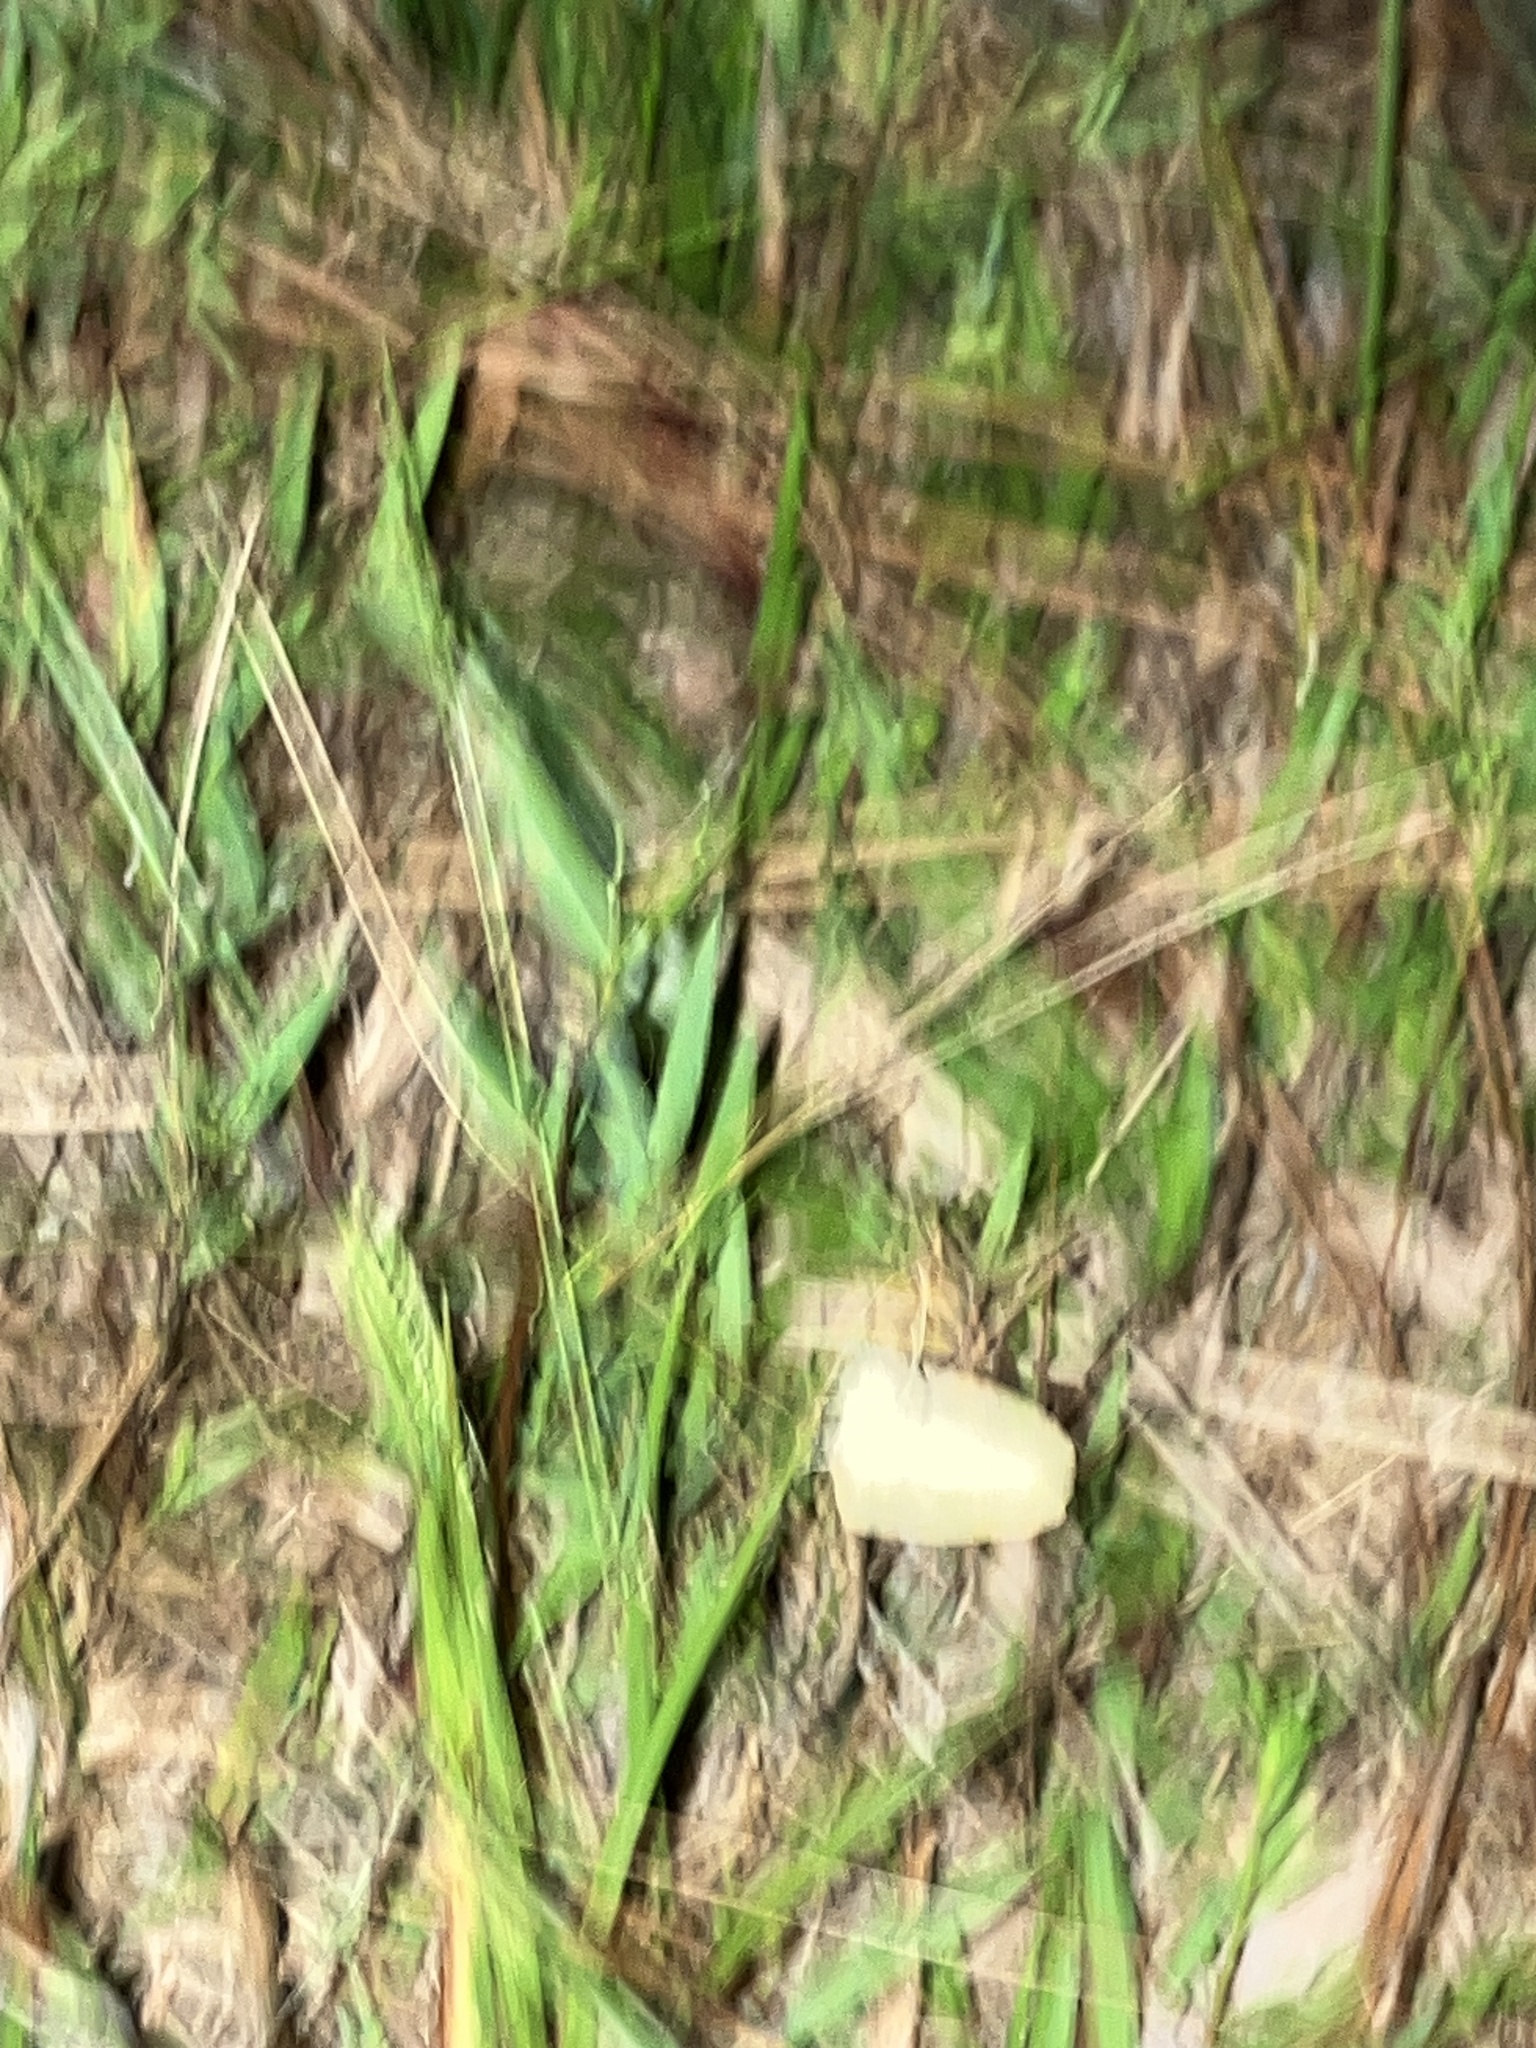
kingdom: Animalia
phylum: Arthropoda
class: Insecta
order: Lepidoptera
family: Pieridae
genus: Eurema
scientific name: Eurema daira
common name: Barred sulphur
